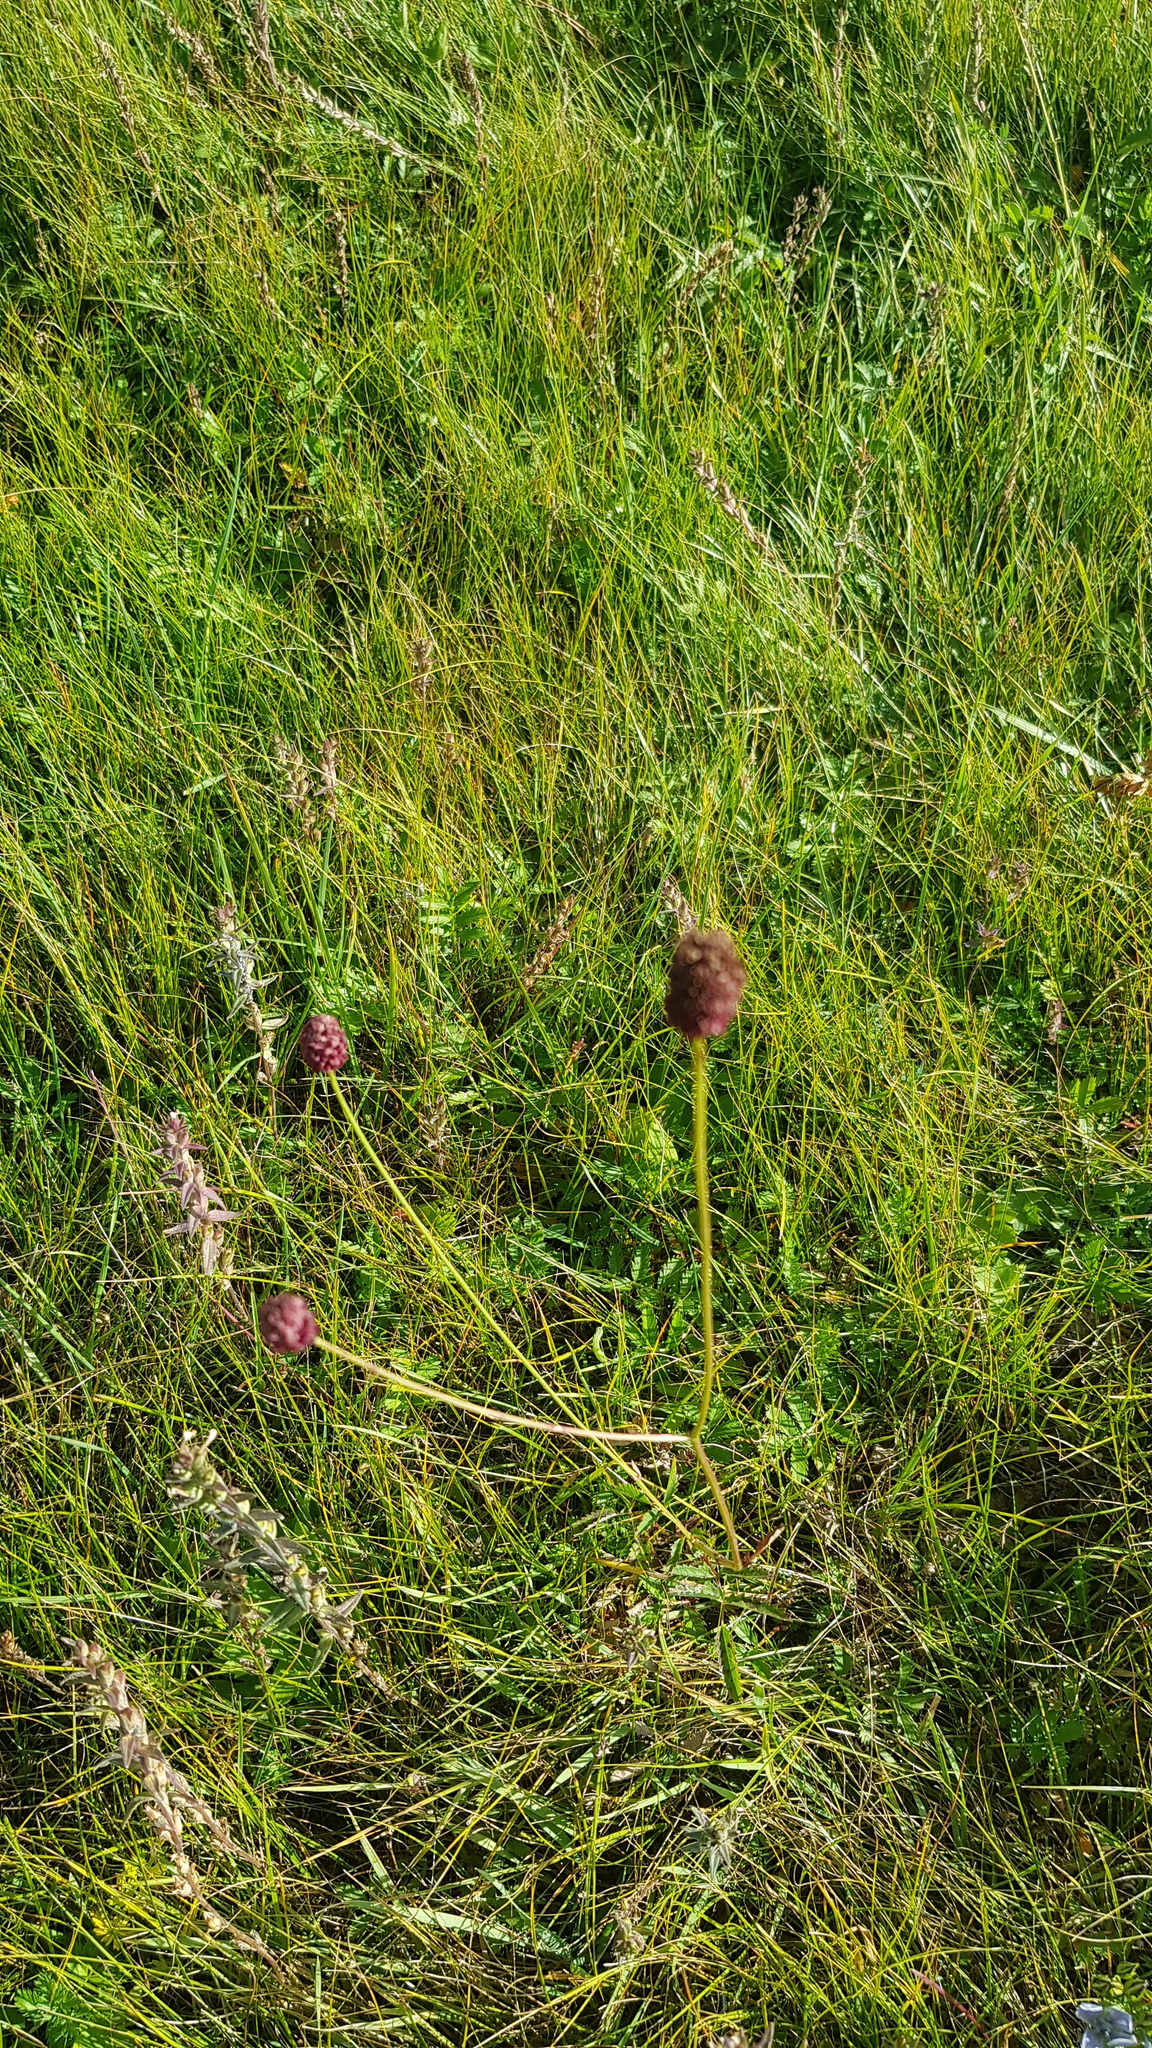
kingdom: Plantae
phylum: Tracheophyta
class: Magnoliopsida
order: Rosales
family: Rosaceae
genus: Sanguisorba
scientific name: Sanguisorba officinalis
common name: Great burnet
